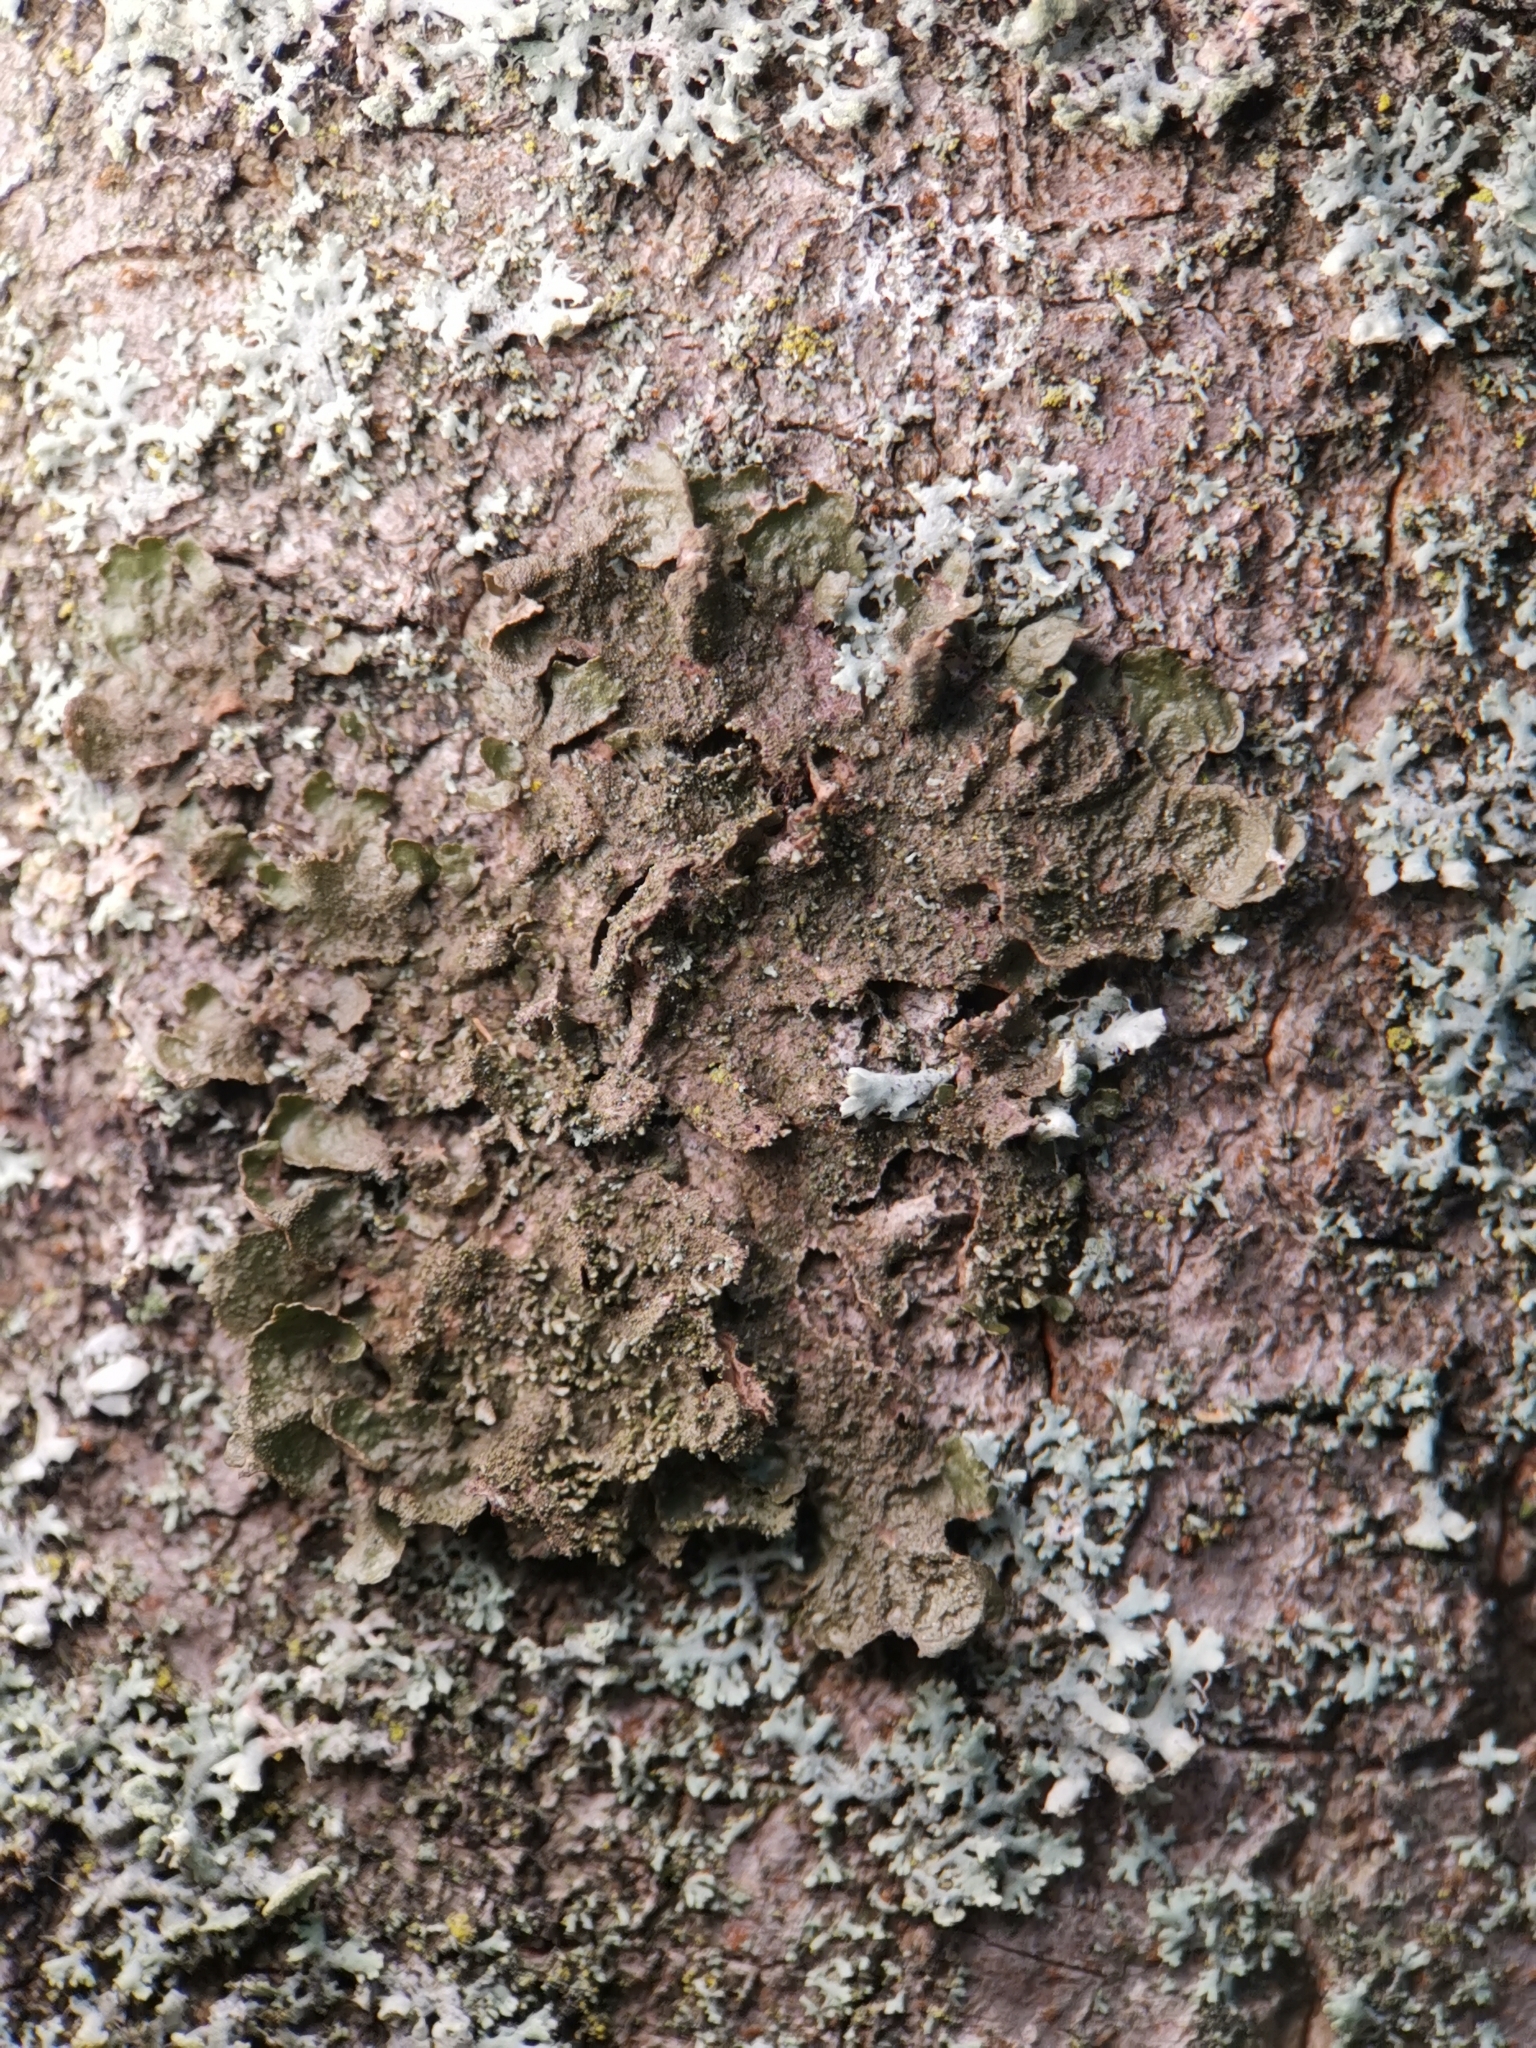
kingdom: Fungi
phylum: Ascomycota
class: Lecanoromycetes
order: Lecanorales
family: Parmeliaceae
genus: Melanohalea
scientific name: Melanohalea exasperatula
